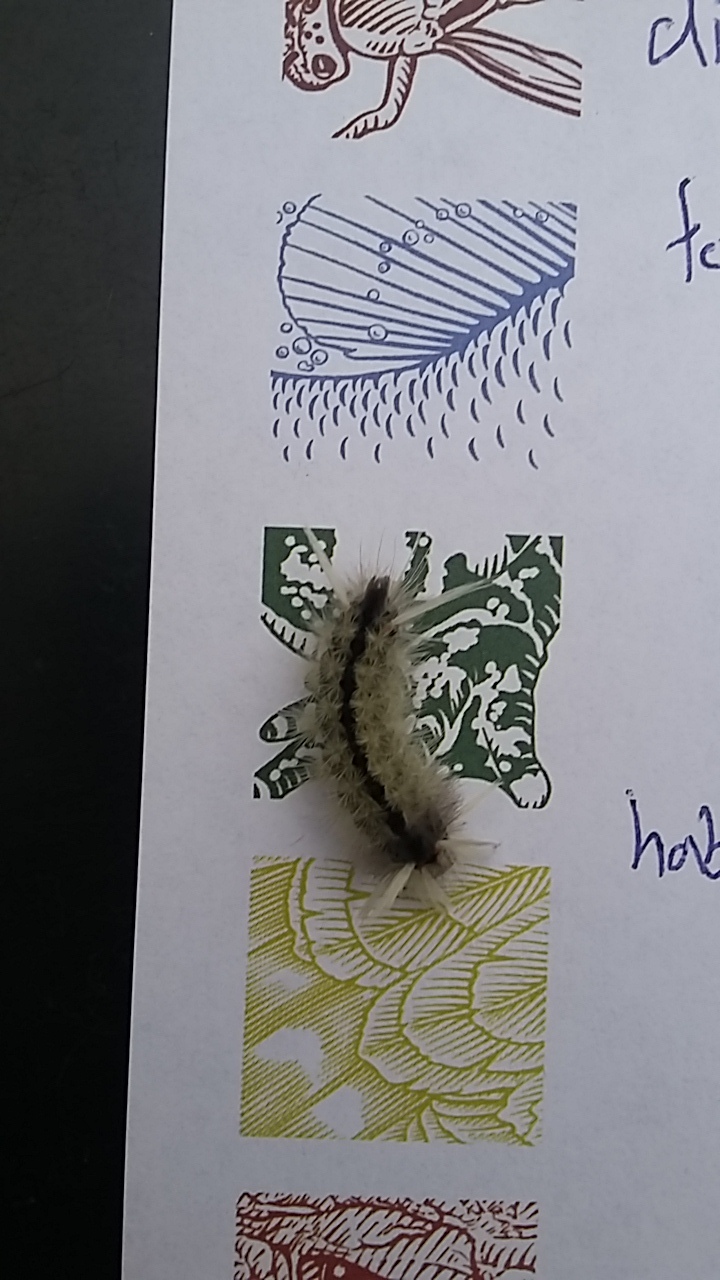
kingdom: Animalia
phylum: Arthropoda
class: Insecta
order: Lepidoptera
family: Erebidae
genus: Halysidota
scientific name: Halysidota schausi
